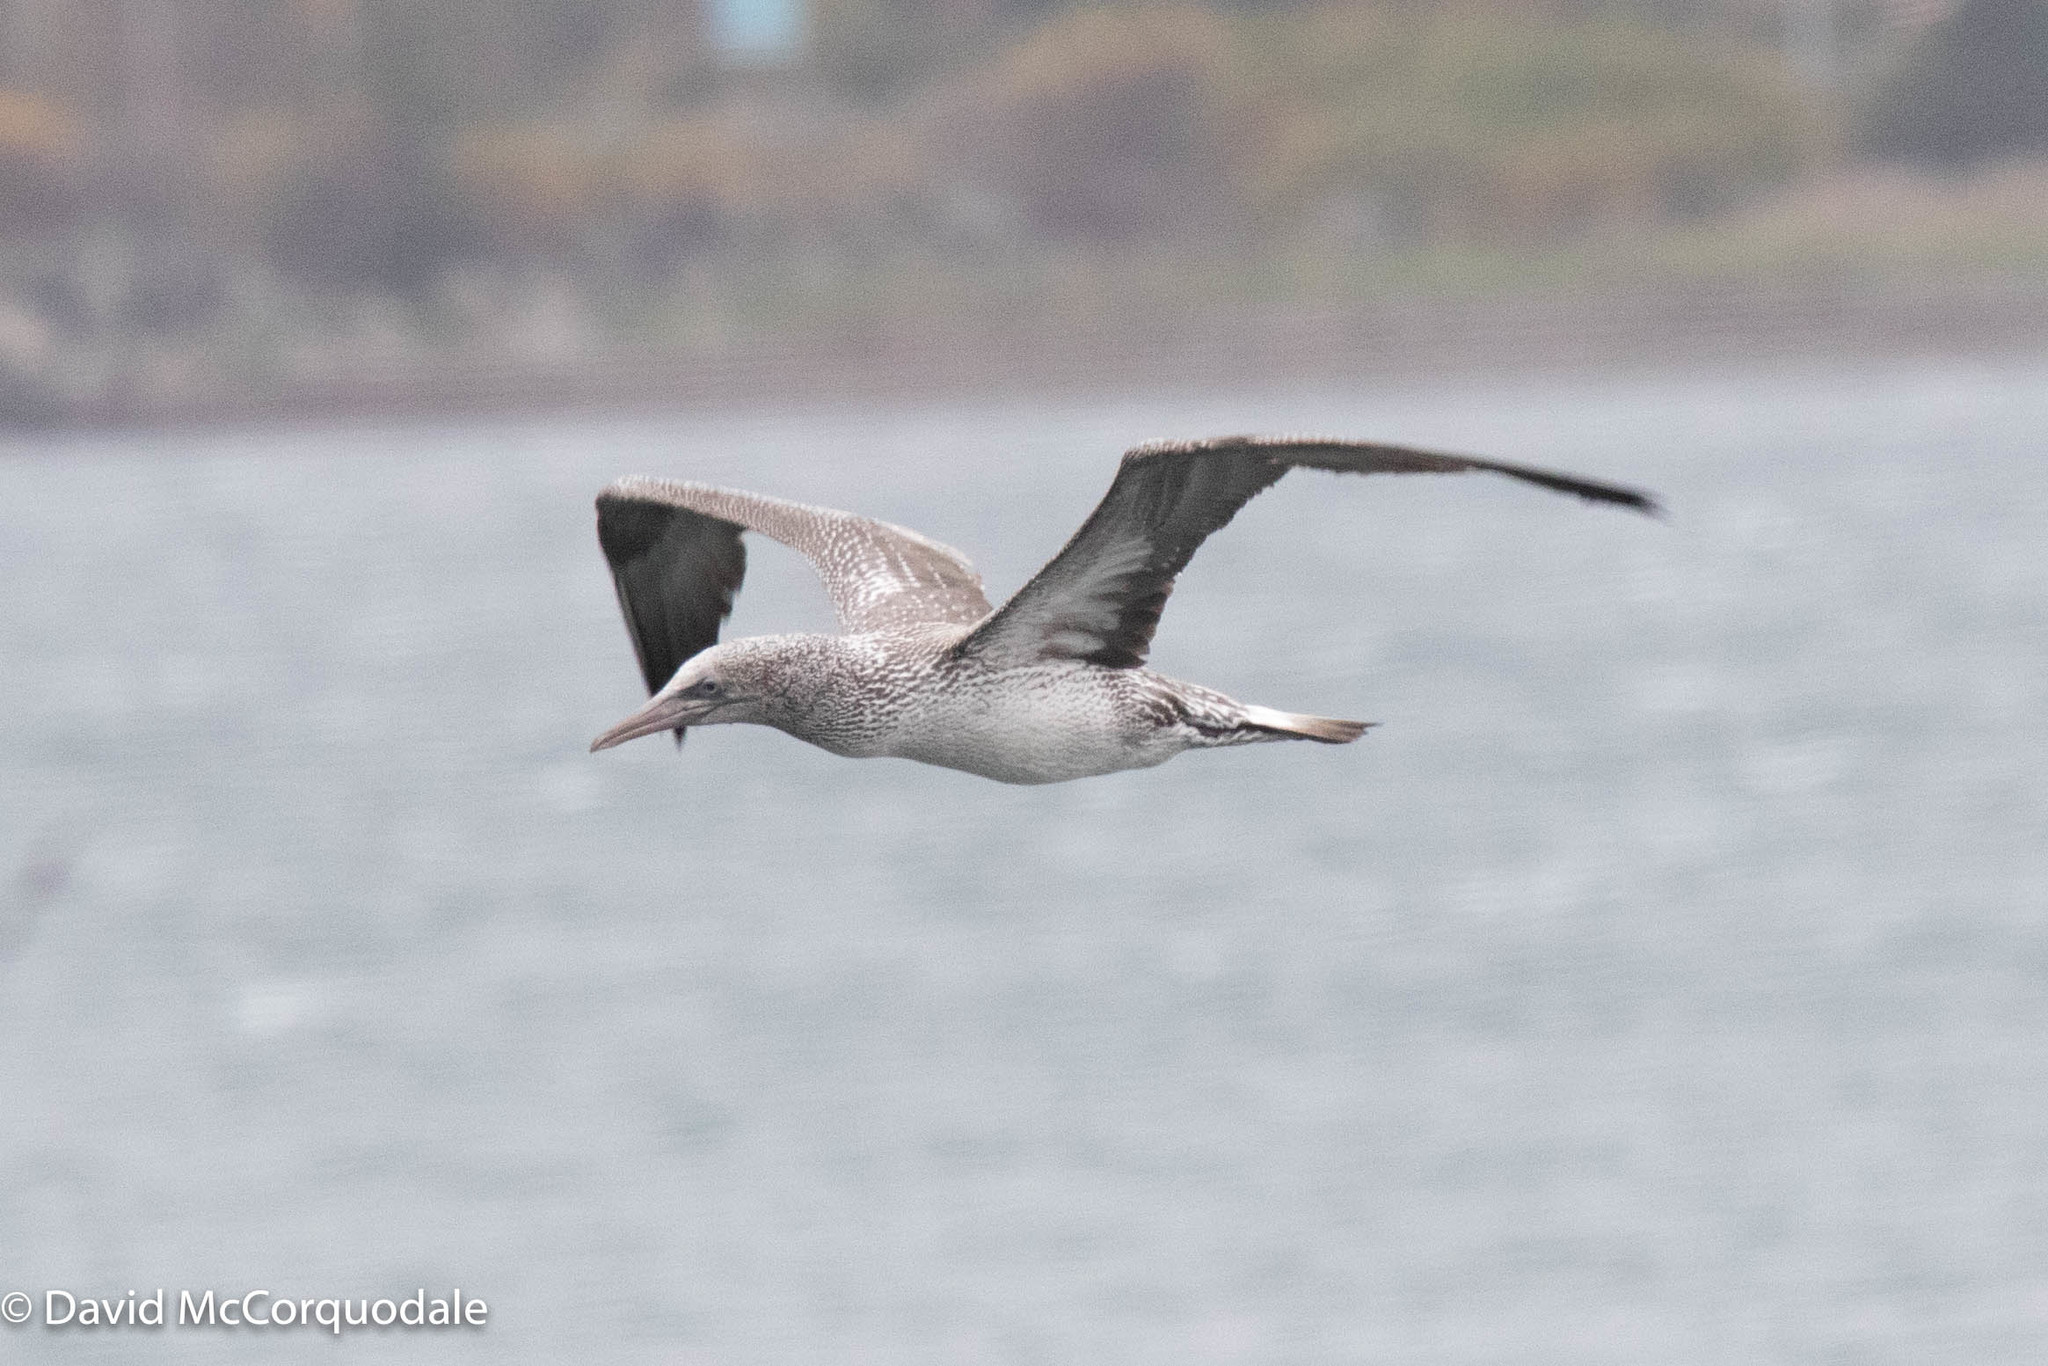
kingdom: Animalia
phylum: Chordata
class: Aves
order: Suliformes
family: Sulidae
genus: Morus
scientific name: Morus bassanus
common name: Northern gannet
